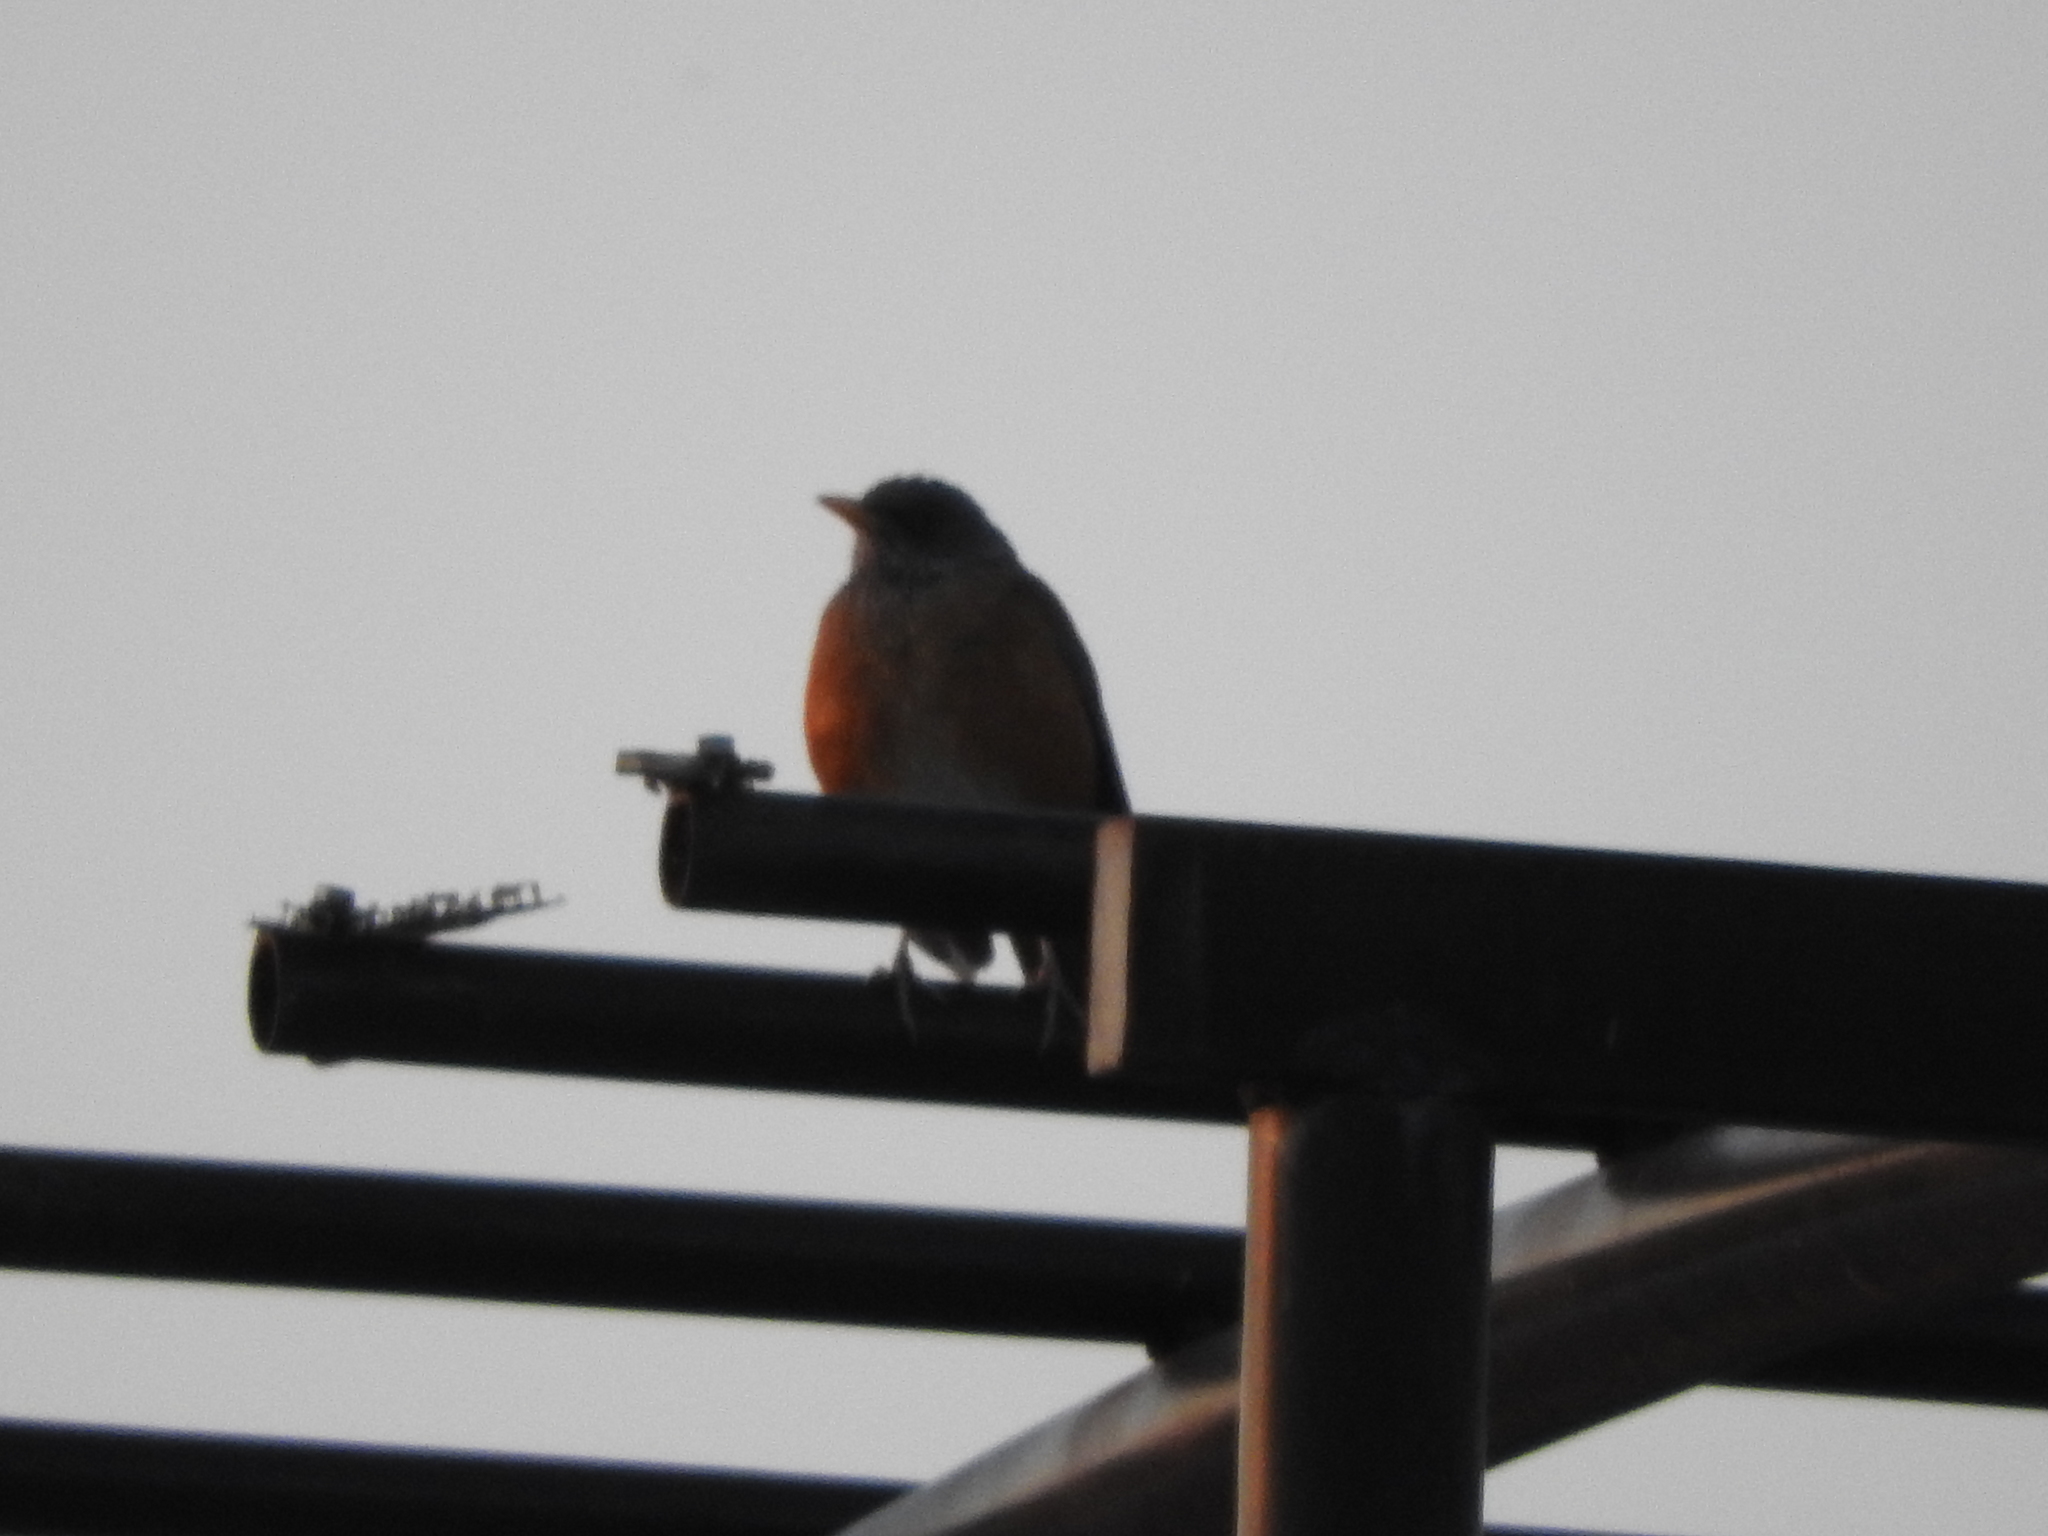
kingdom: Animalia
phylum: Chordata
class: Aves
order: Passeriformes
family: Turdidae
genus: Turdus
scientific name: Turdus rufopalliatus
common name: Rufous-backed robin
